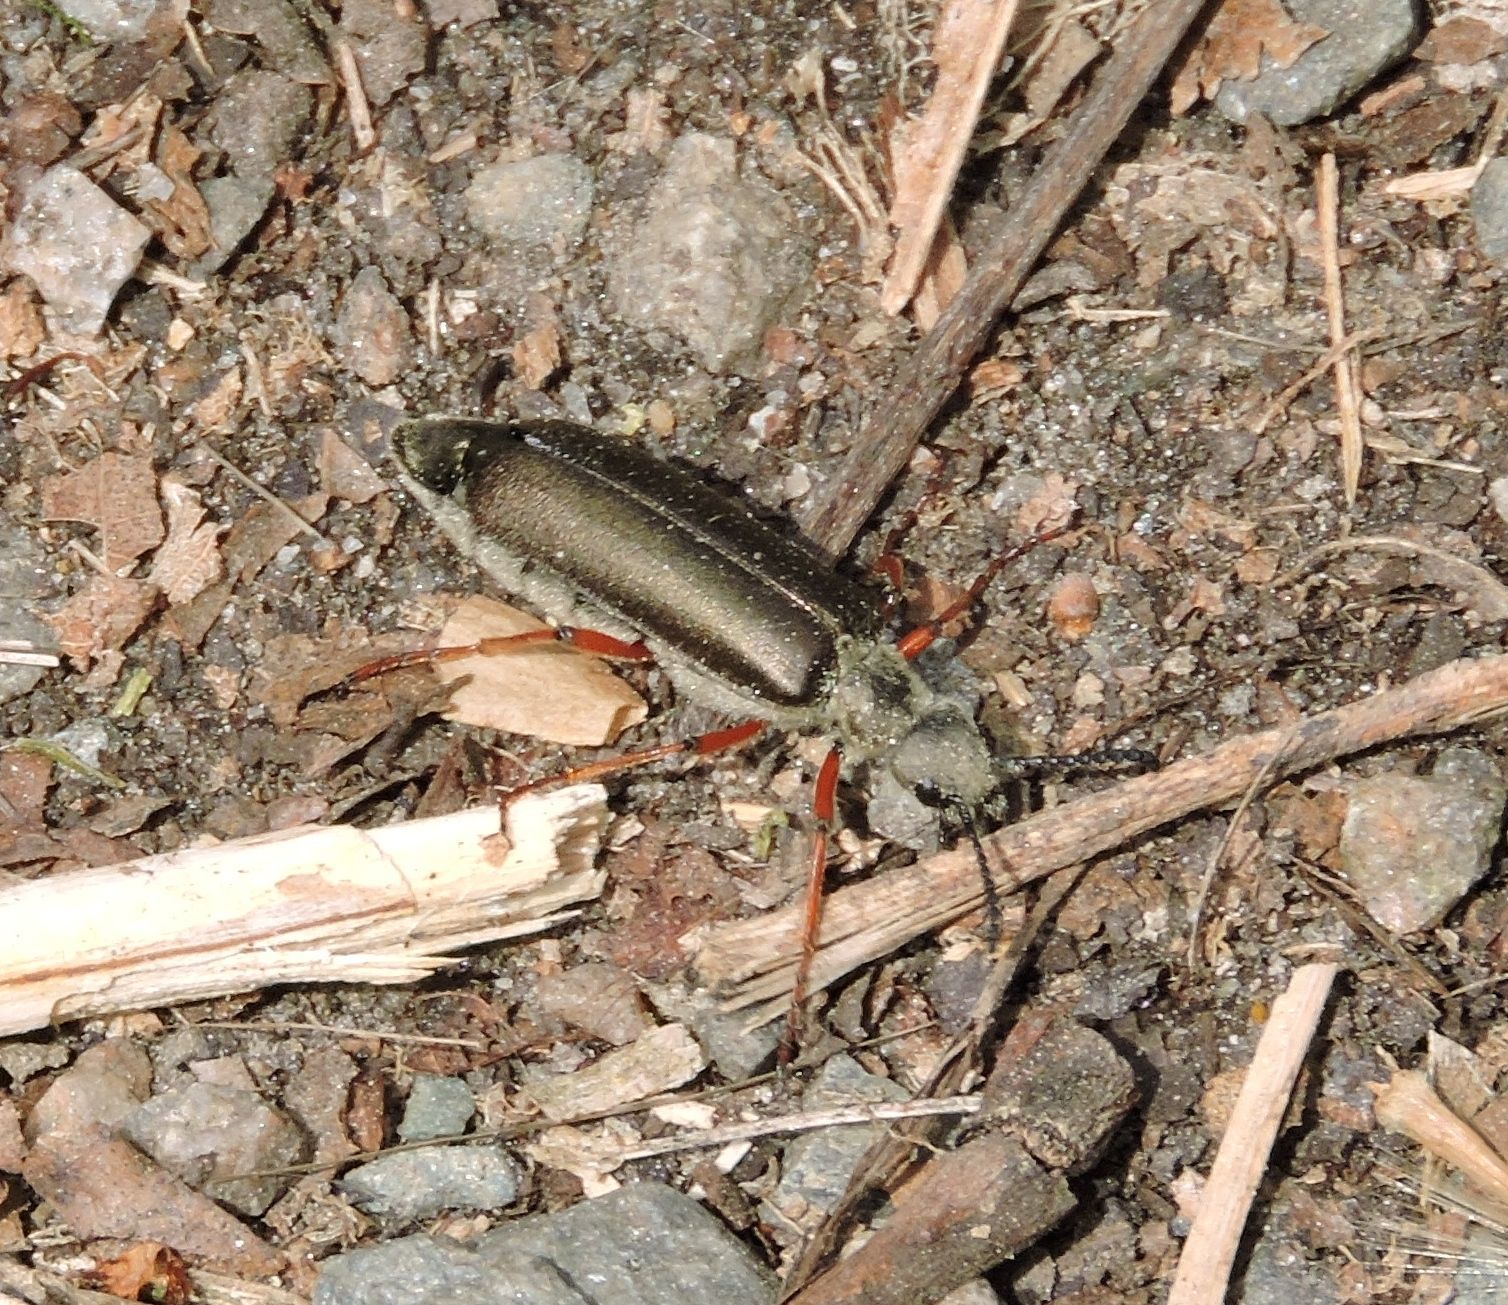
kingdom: Animalia
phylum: Arthropoda
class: Insecta
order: Coleoptera
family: Meloidae
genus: Lytta
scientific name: Lytta aenea
